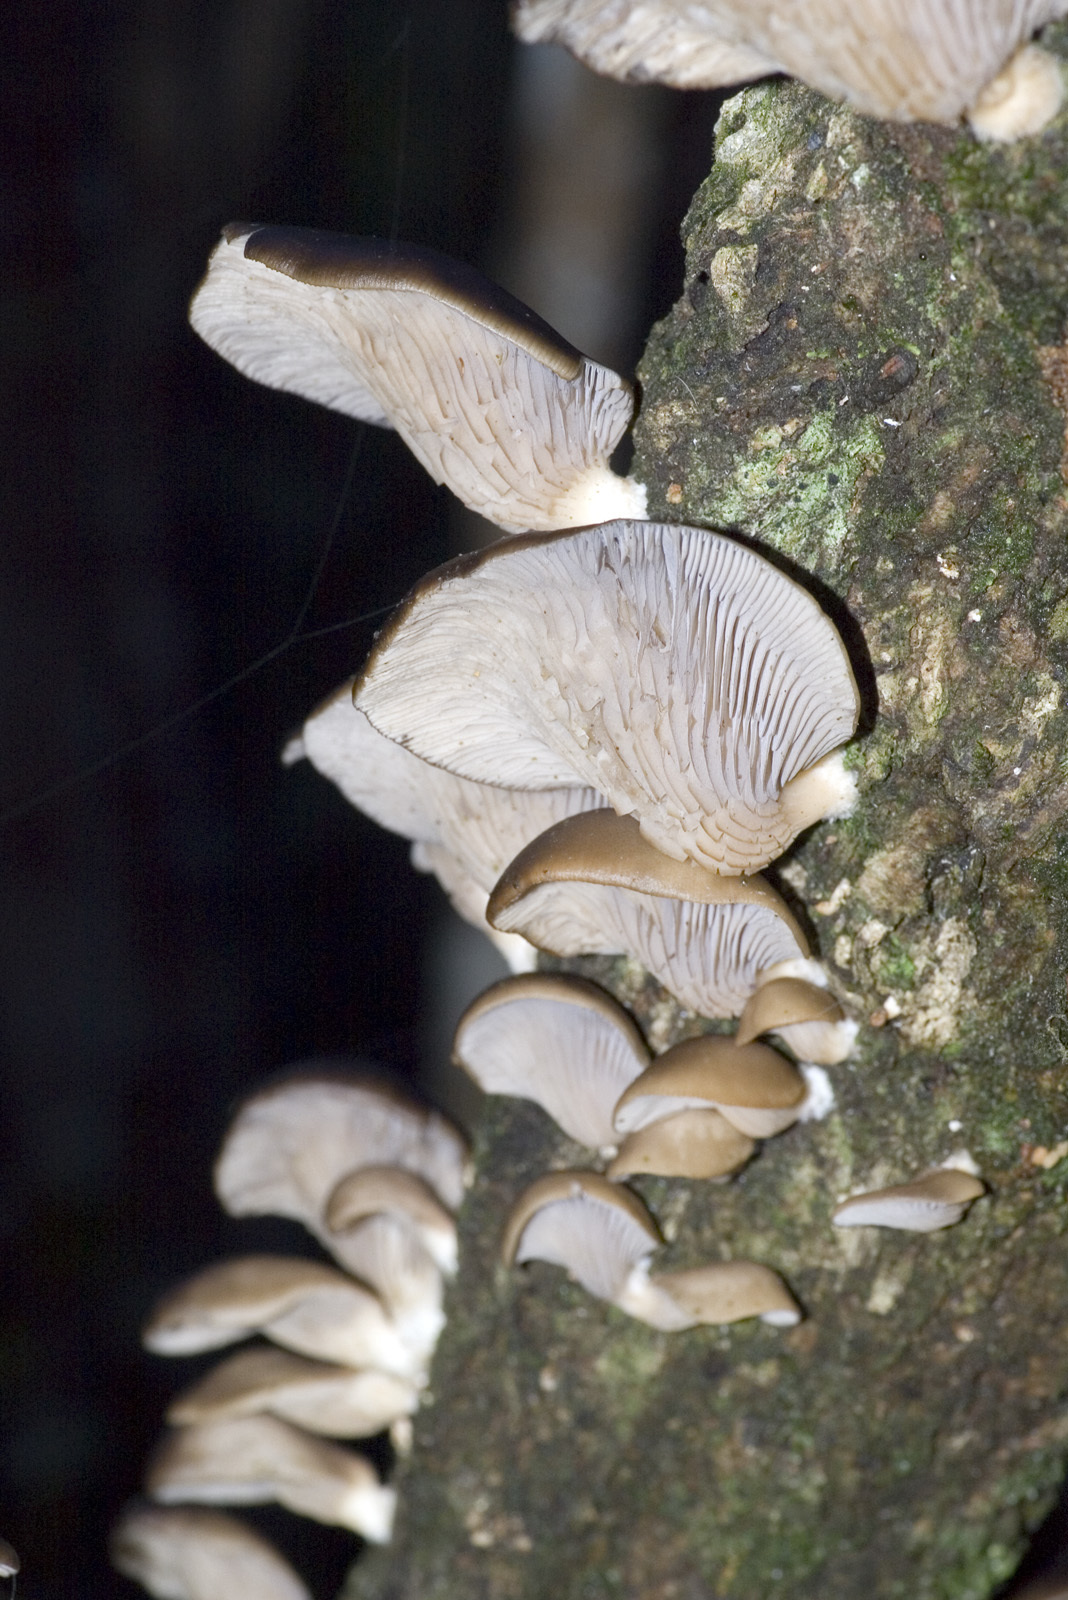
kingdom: Fungi
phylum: Basidiomycota
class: Agaricomycetes
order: Agaricales
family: Pleurotaceae
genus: Pleurotus
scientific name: Pleurotus purpureo-olivaceus
